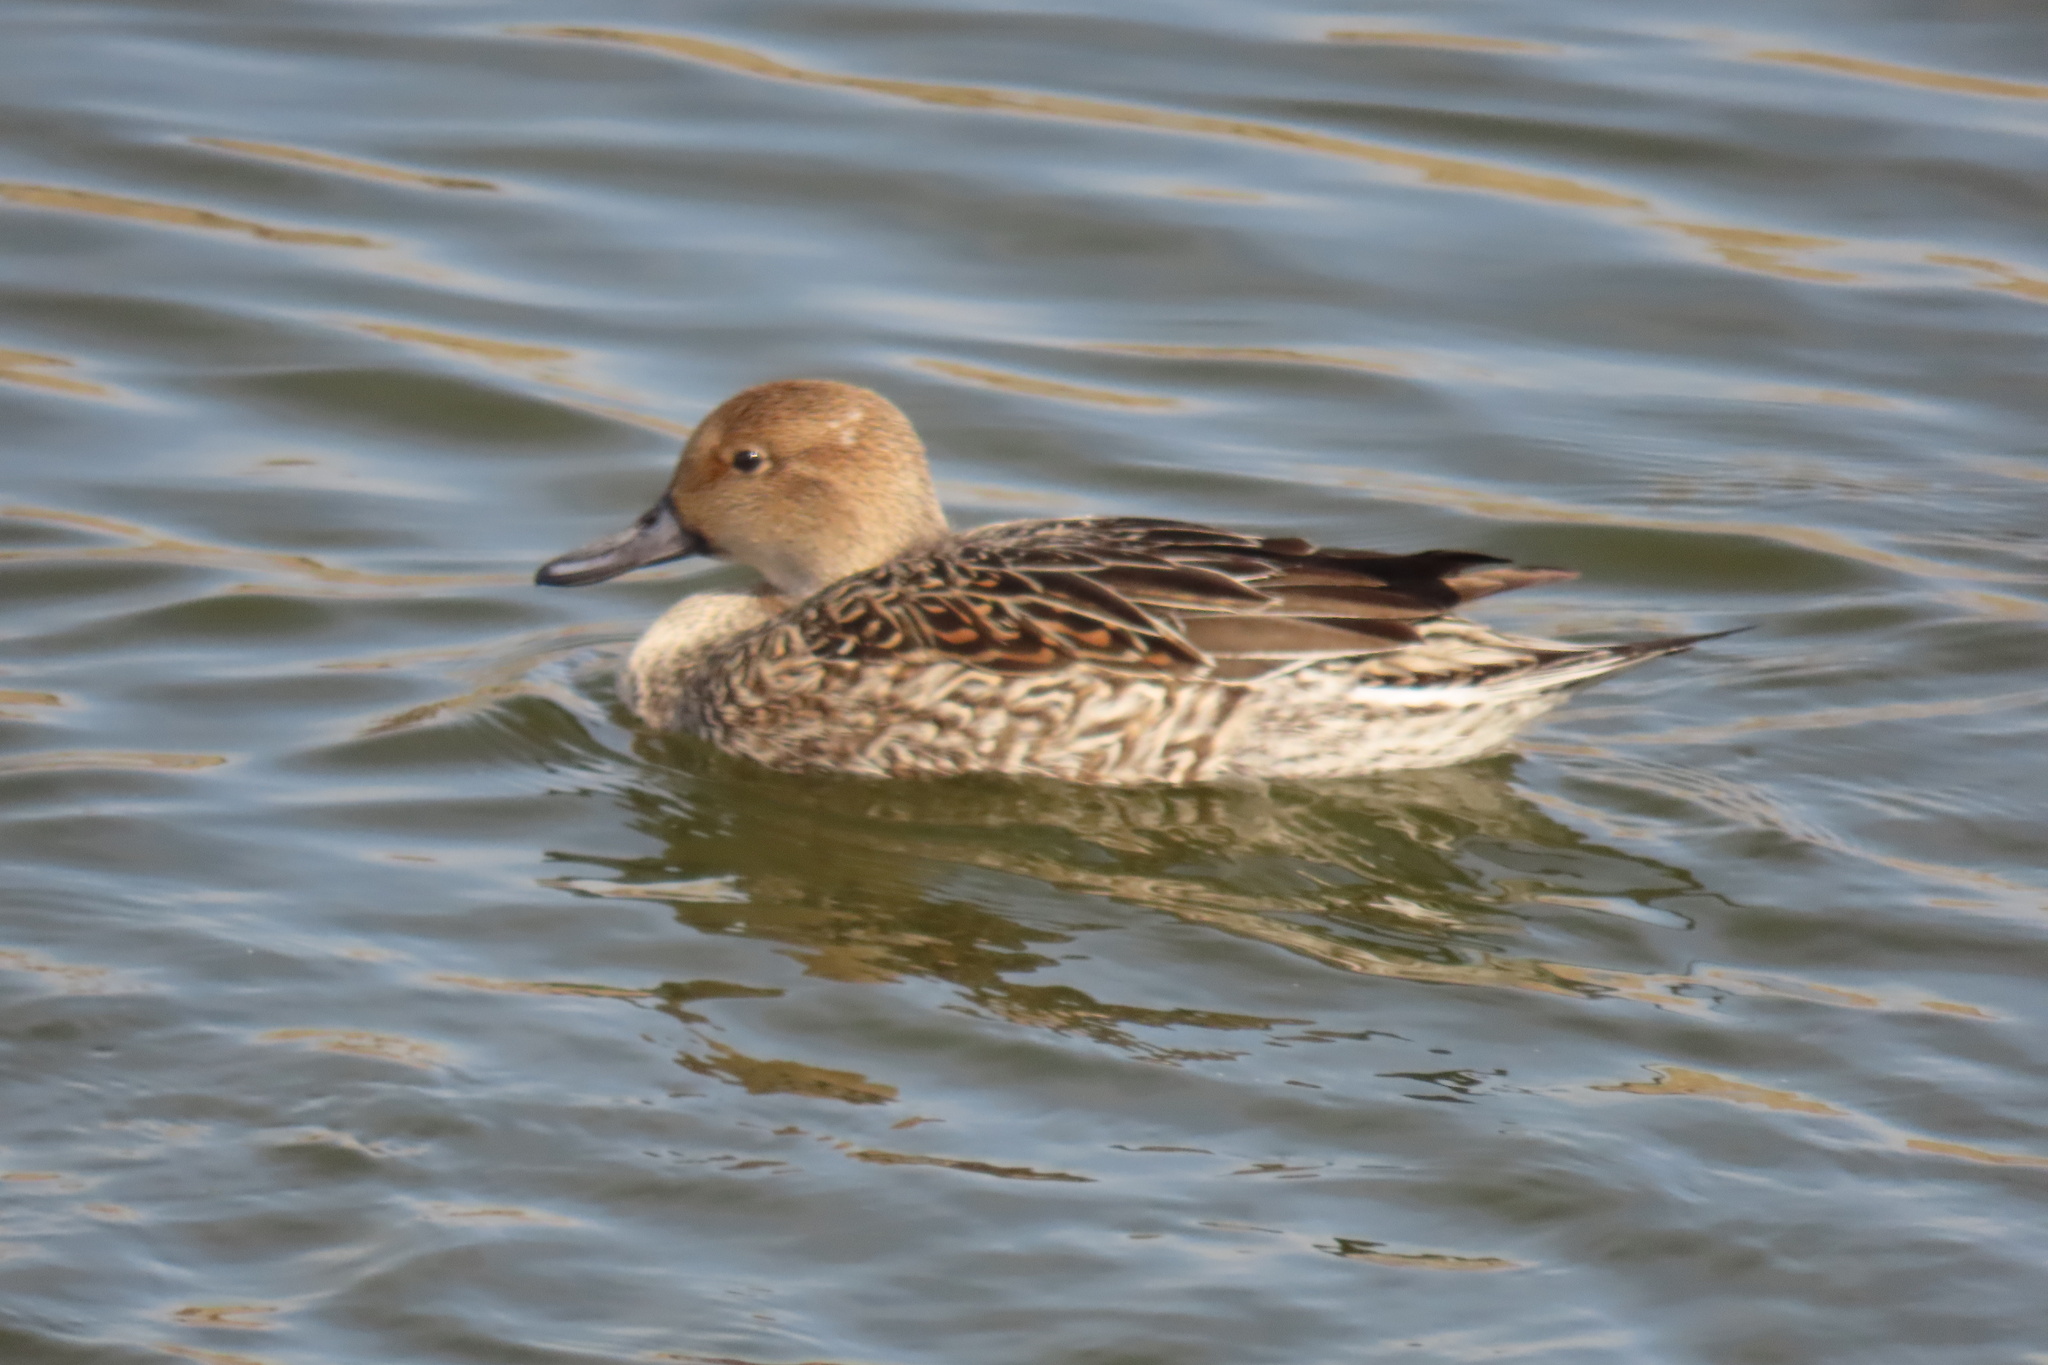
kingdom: Animalia
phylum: Chordata
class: Aves
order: Anseriformes
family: Anatidae
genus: Anas
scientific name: Anas acuta
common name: Northern pintail
